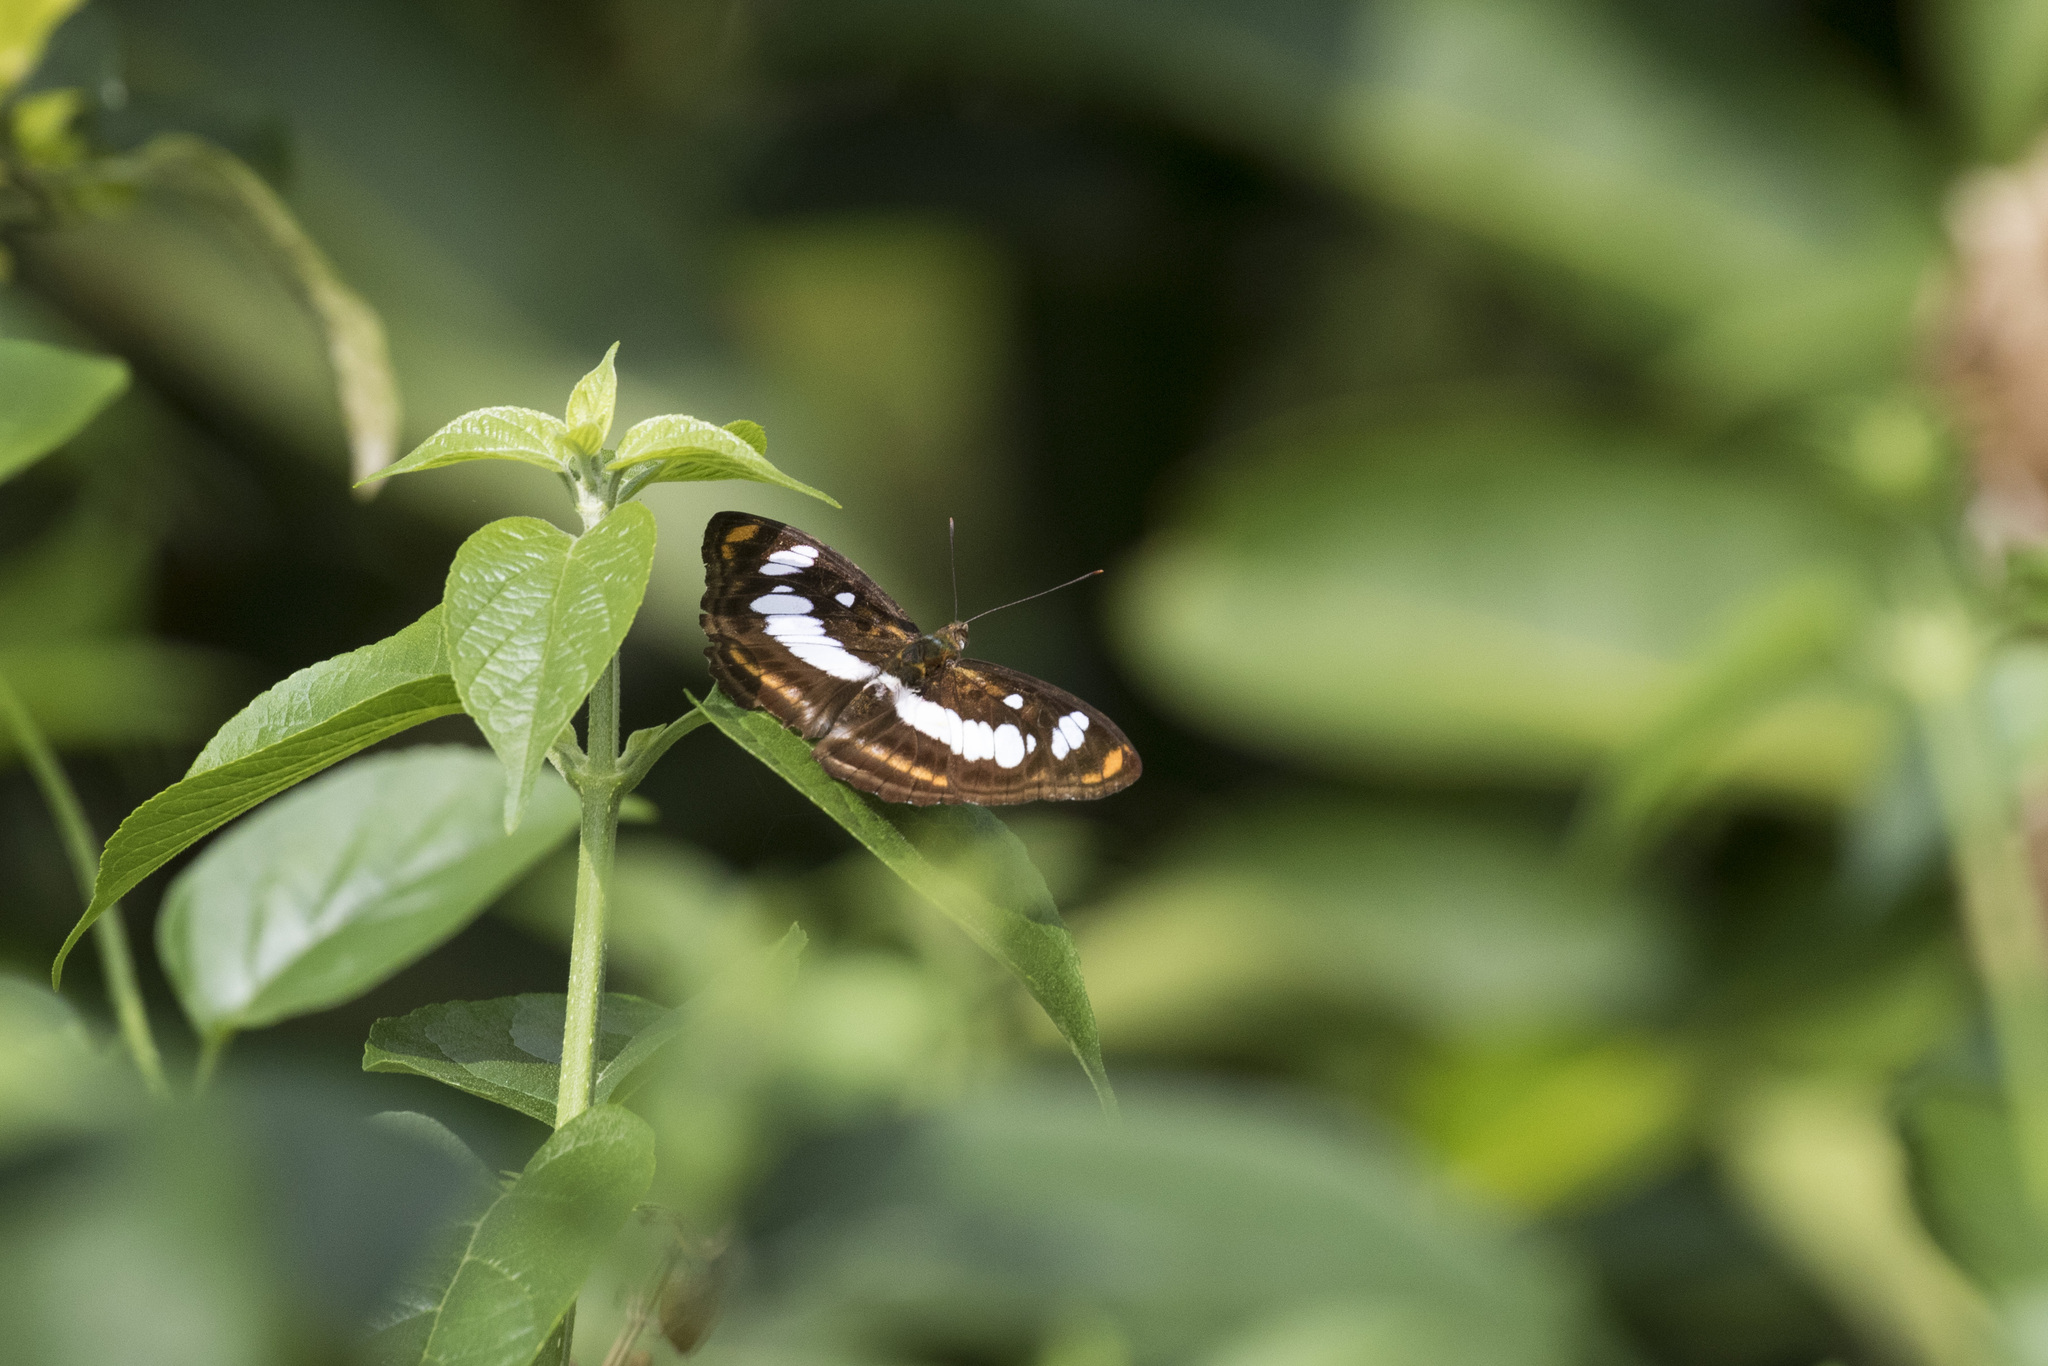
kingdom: Animalia
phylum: Arthropoda
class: Insecta
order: Lepidoptera
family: Nymphalidae
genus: Parathyma
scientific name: Parathyma nefte
